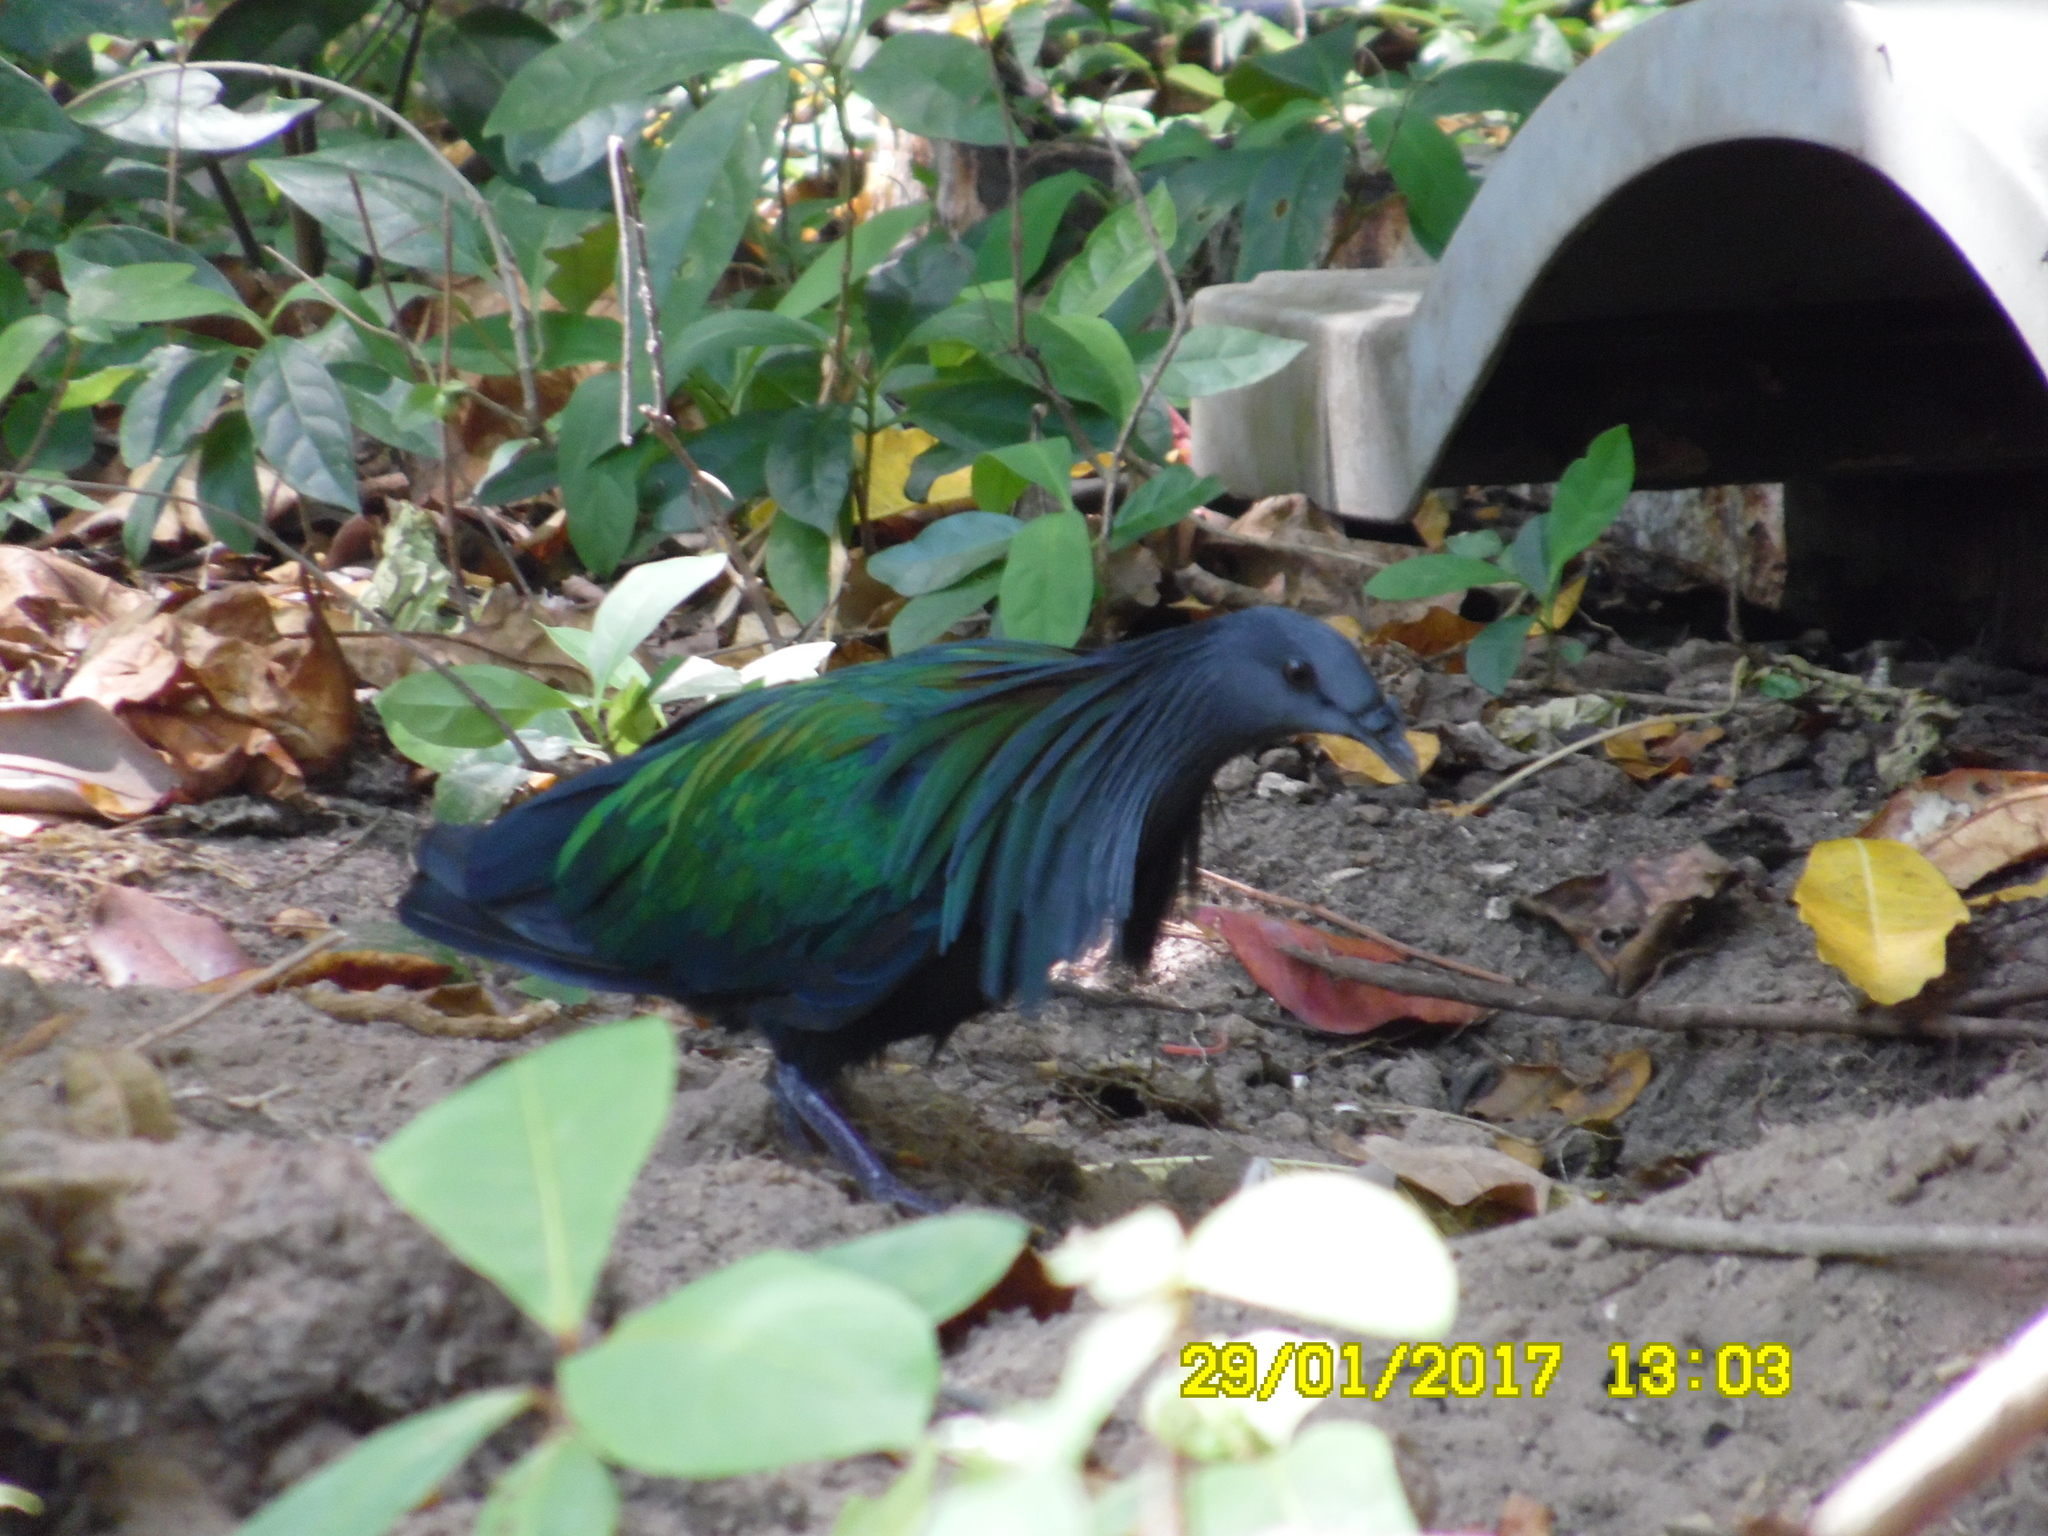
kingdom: Animalia
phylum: Chordata
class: Aves
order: Columbiformes
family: Columbidae
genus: Caloenas
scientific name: Caloenas nicobarica
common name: Nicobar pigeon
